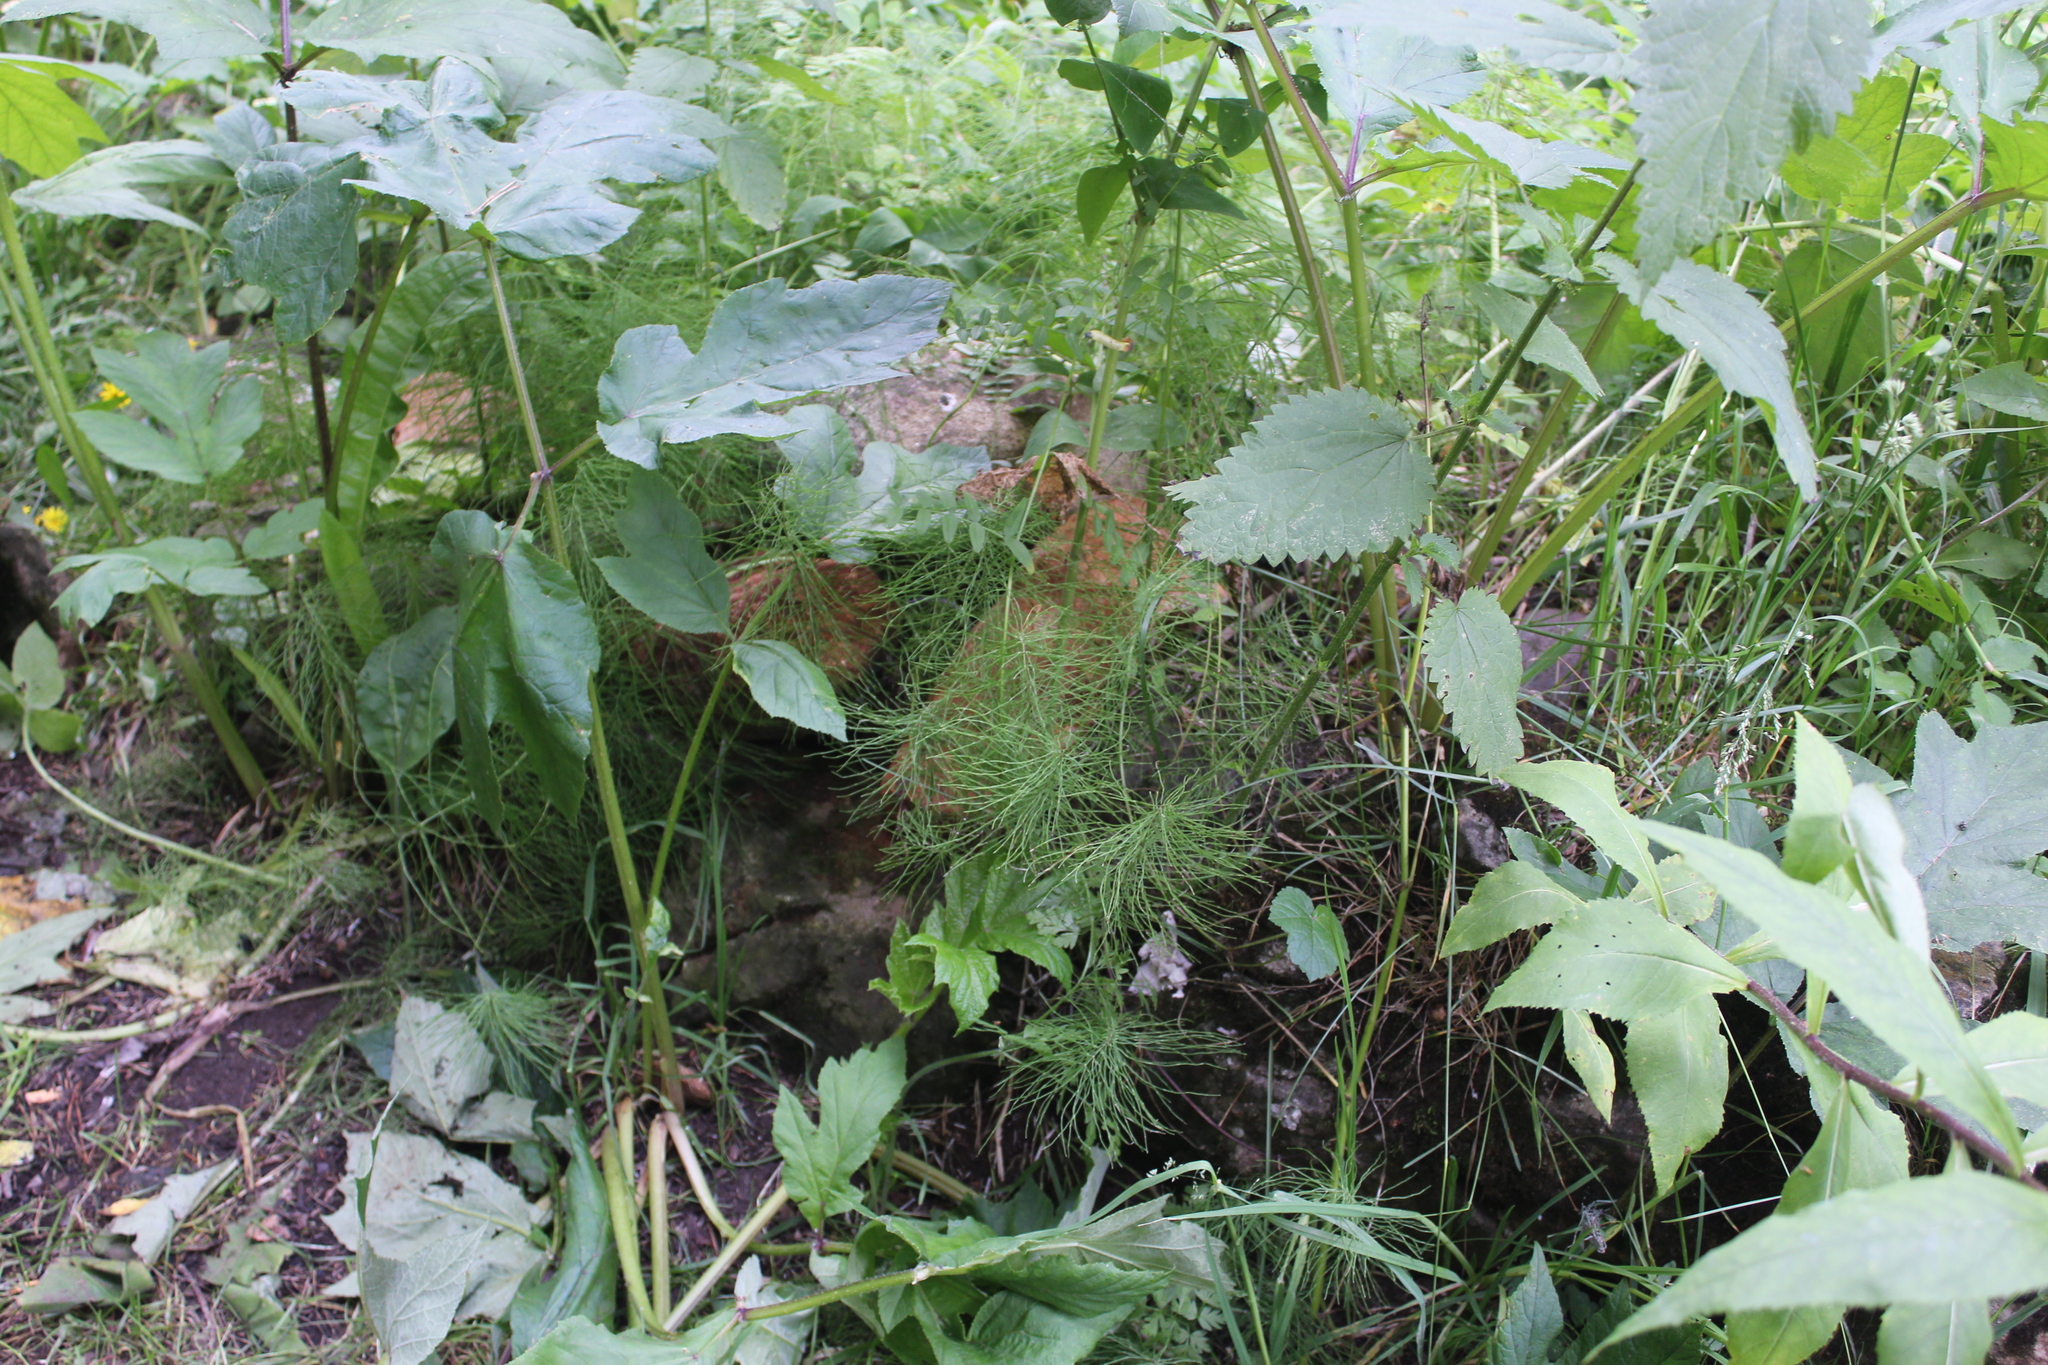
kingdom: Plantae
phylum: Tracheophyta
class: Polypodiopsida
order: Equisetales
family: Equisetaceae
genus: Equisetum
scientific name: Equisetum pratense
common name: Meadow horsetail
